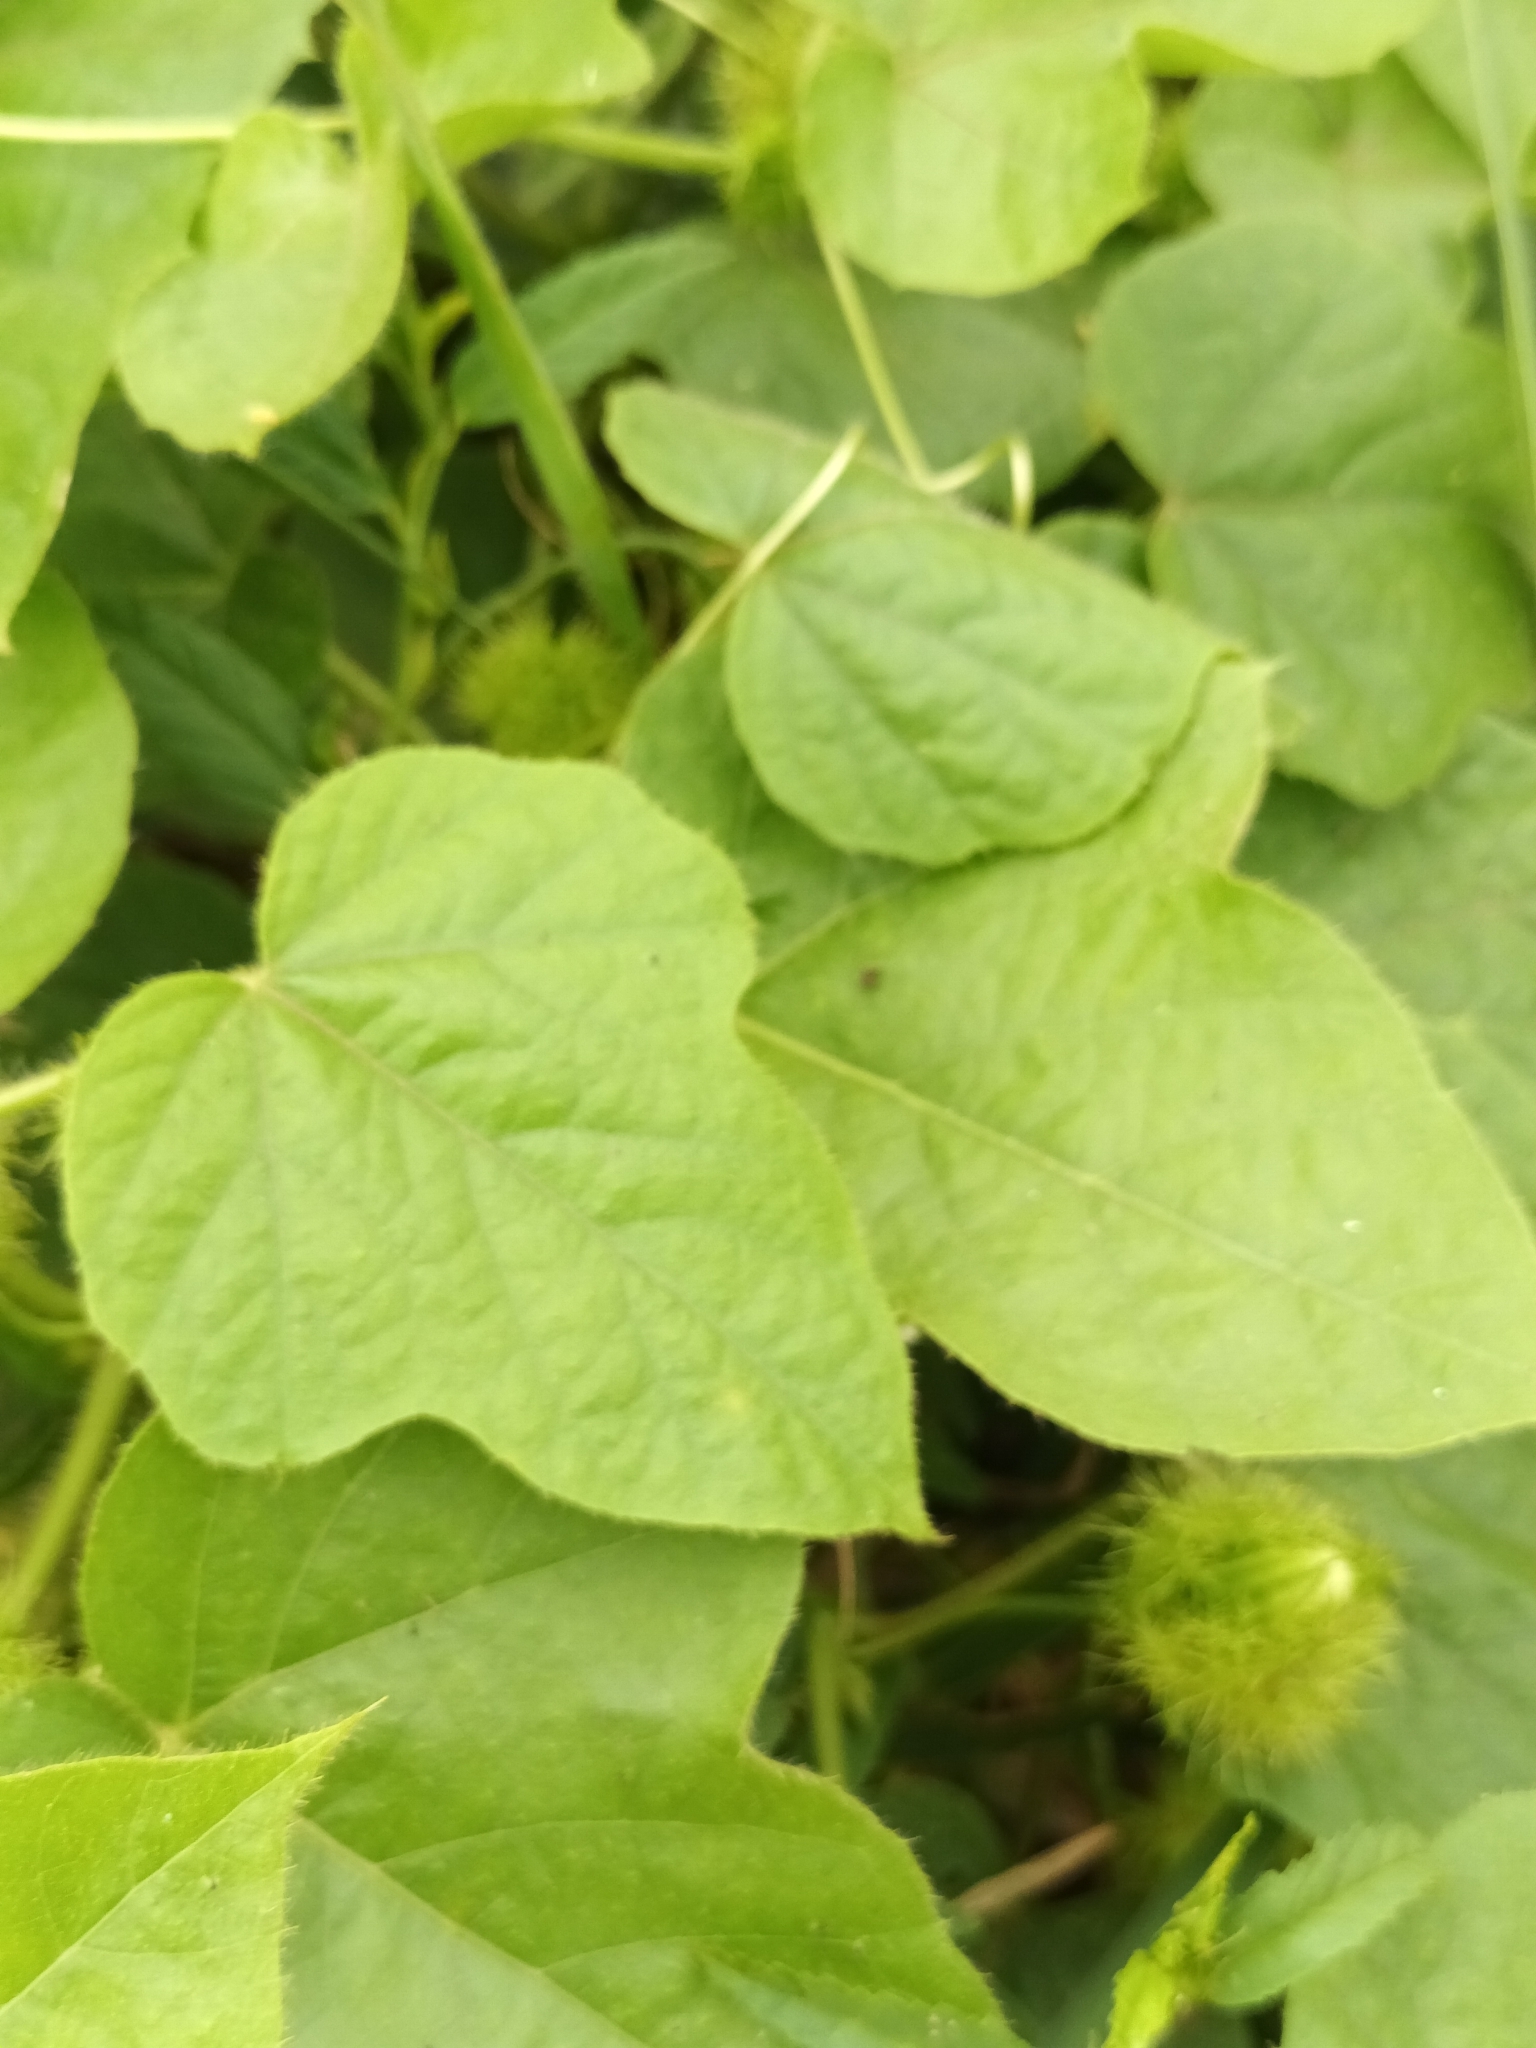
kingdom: Plantae
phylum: Tracheophyta
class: Magnoliopsida
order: Malpighiales
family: Passifloraceae
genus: Passiflora
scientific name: Passiflora foetida
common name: Fetid passionflower
